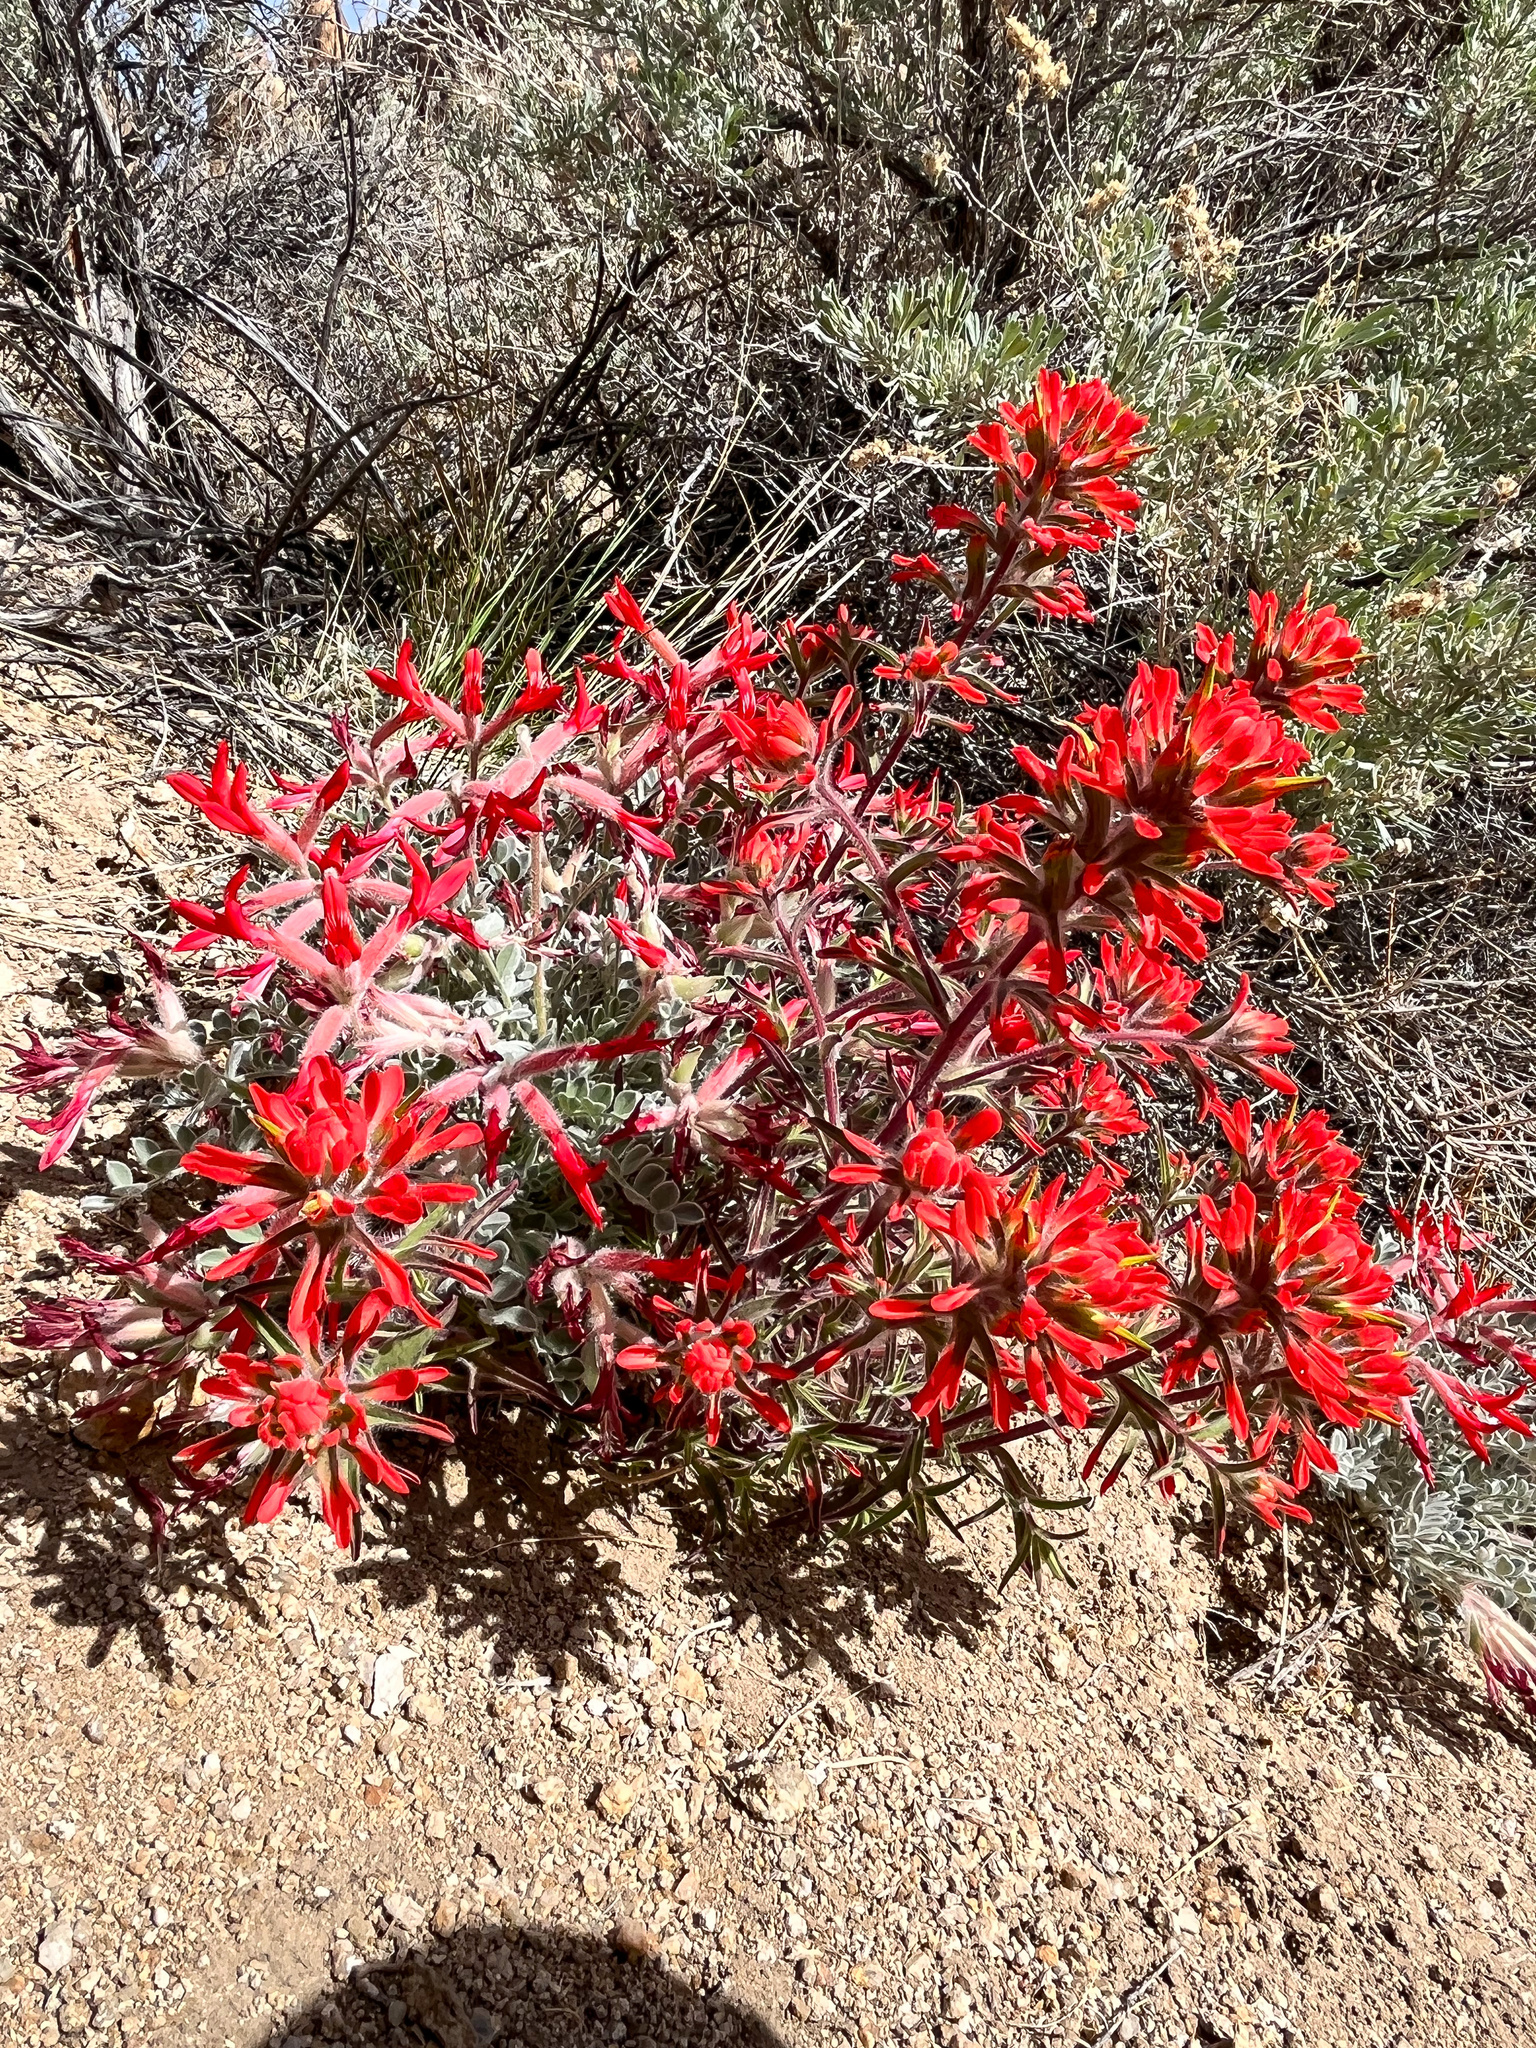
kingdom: Plantae
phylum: Tracheophyta
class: Magnoliopsida
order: Lamiales
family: Orobanchaceae
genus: Castilleja
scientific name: Castilleja chromosa
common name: Desert paintbrush
